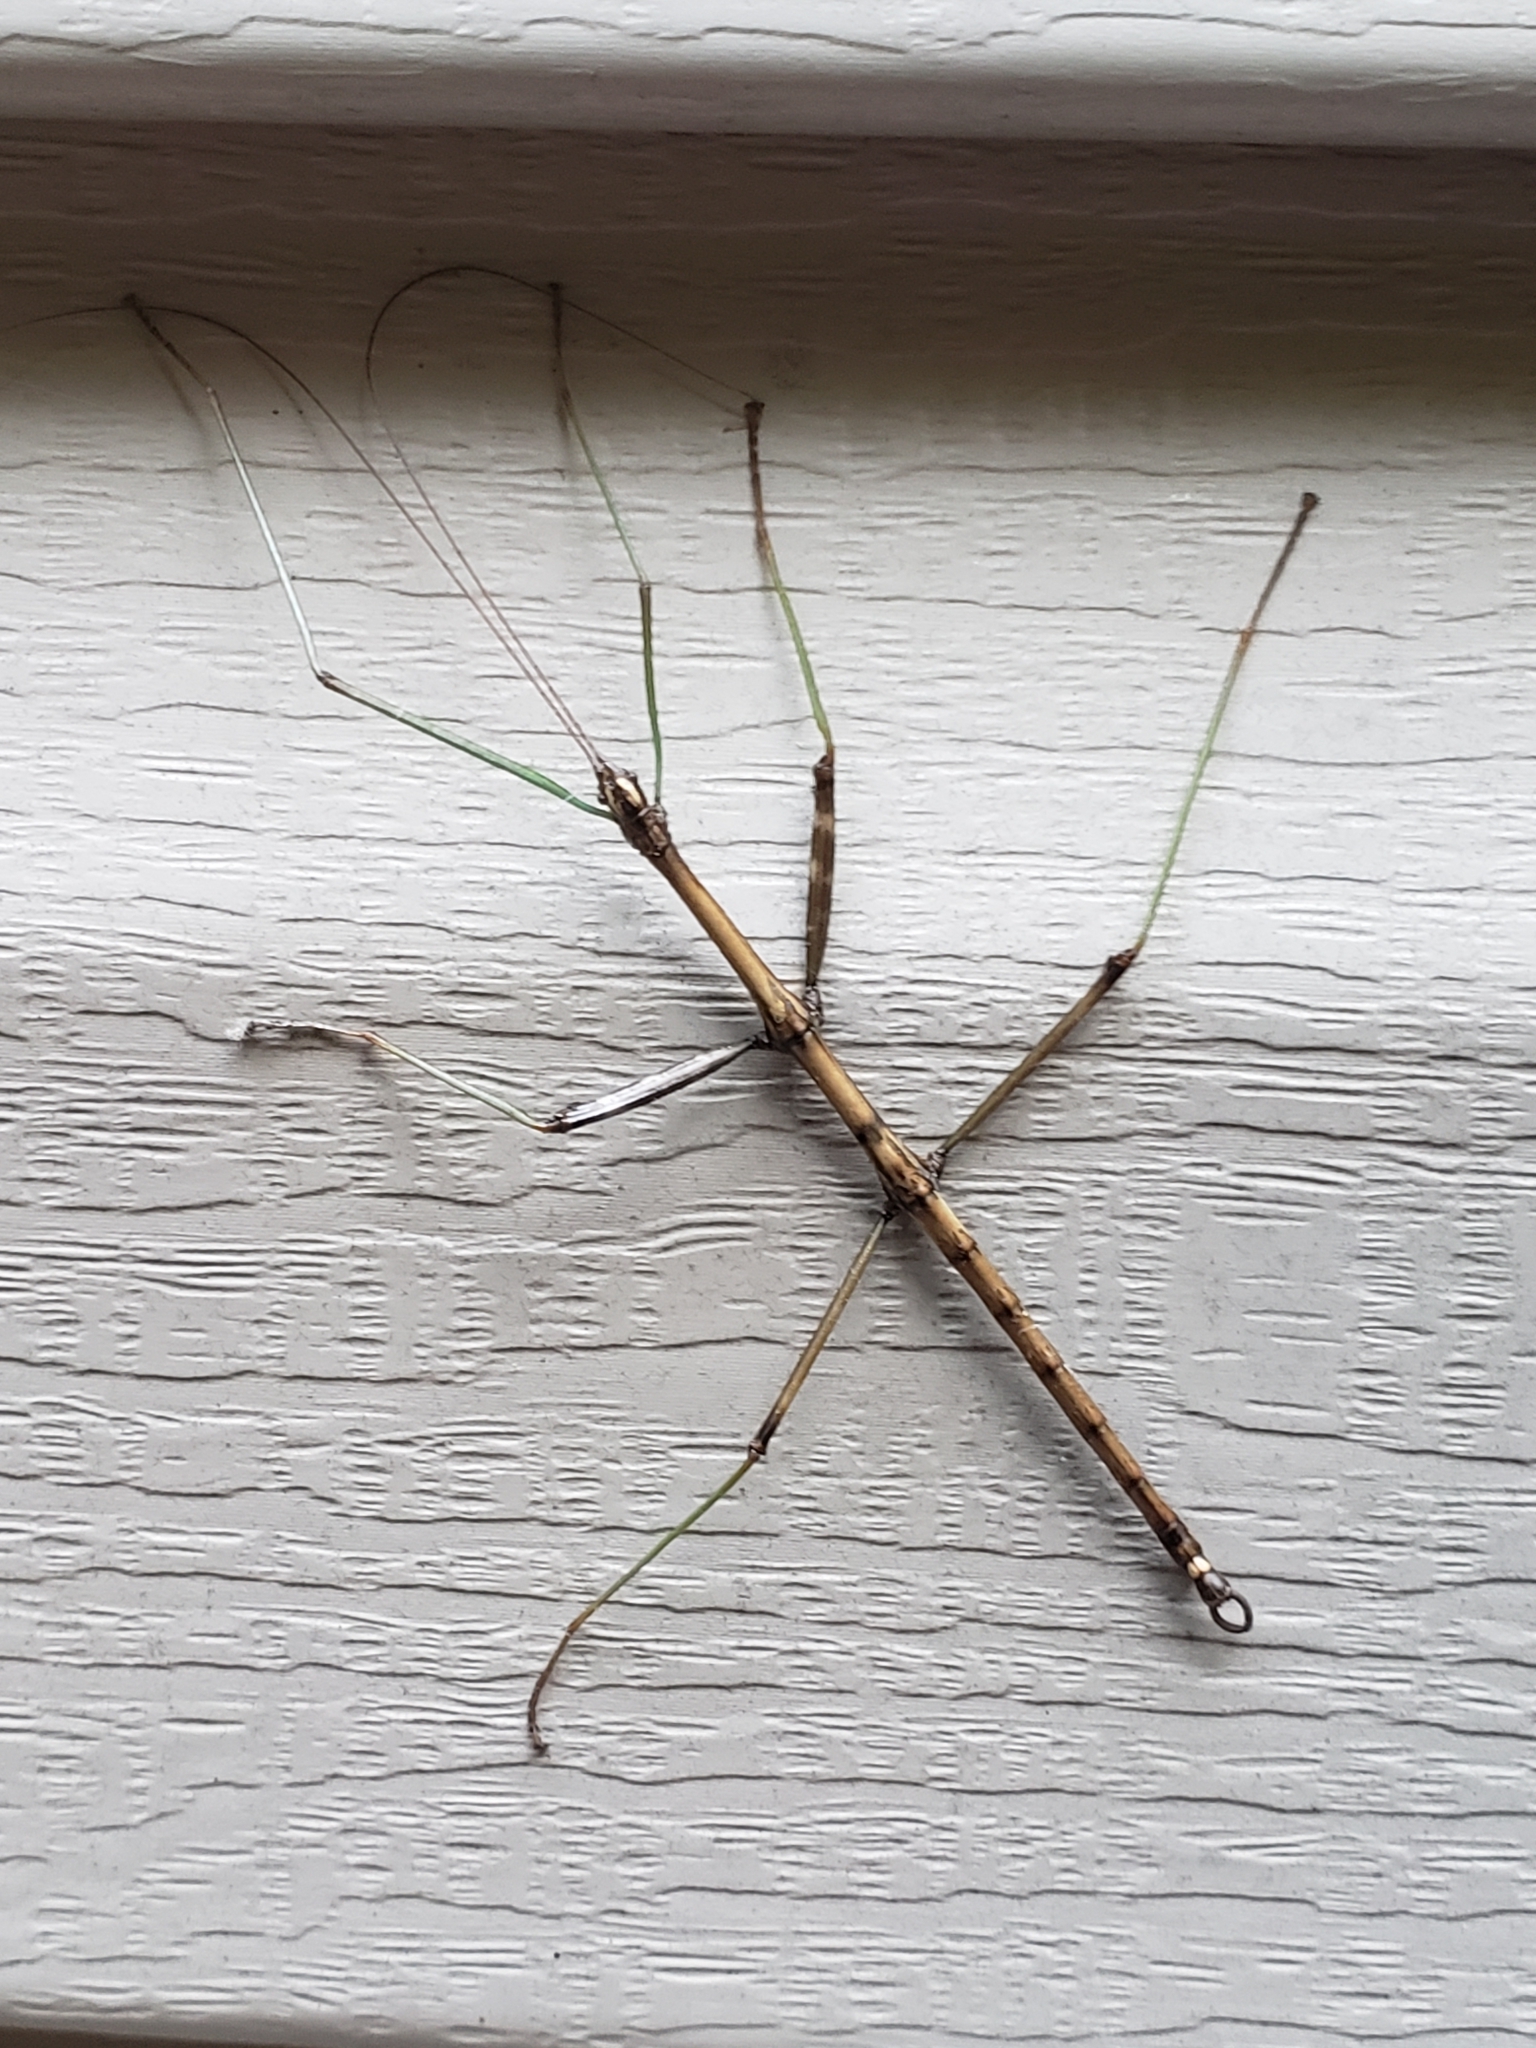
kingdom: Animalia
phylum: Arthropoda
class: Insecta
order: Phasmida
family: Diapheromeridae
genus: Diapheromera
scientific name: Diapheromera femorata
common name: Common american walkingstick
